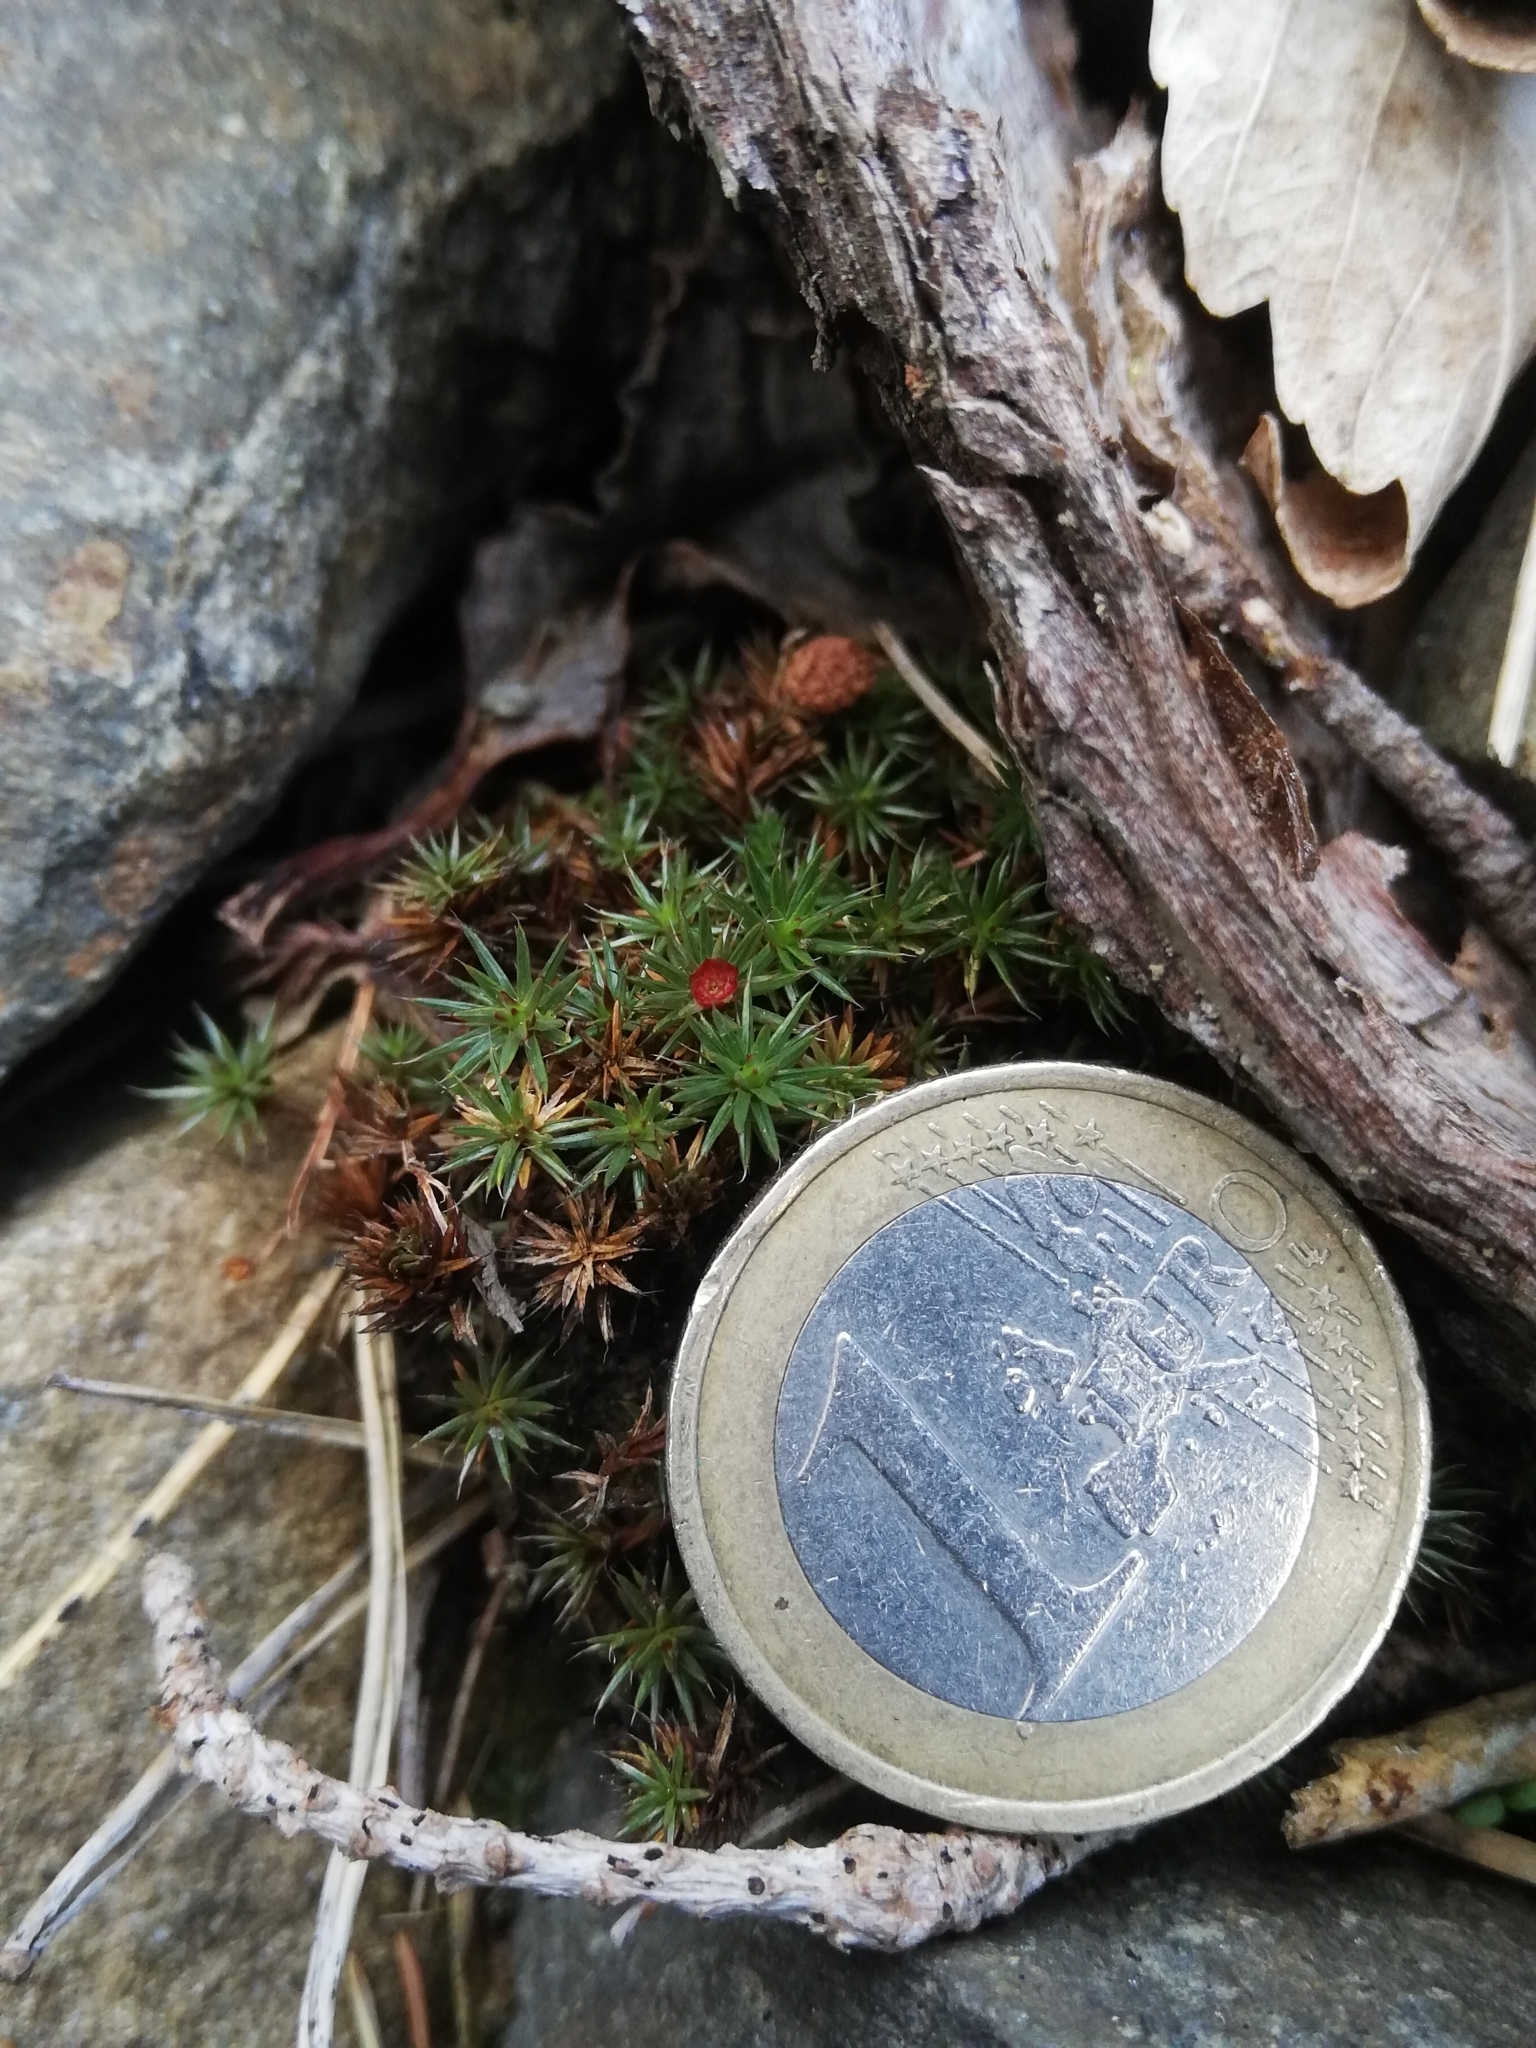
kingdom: Plantae
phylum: Bryophyta
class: Polytrichopsida
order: Polytrichales
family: Polytrichaceae
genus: Polytrichum
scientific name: Polytrichum piliferum
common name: Bristly haircap
